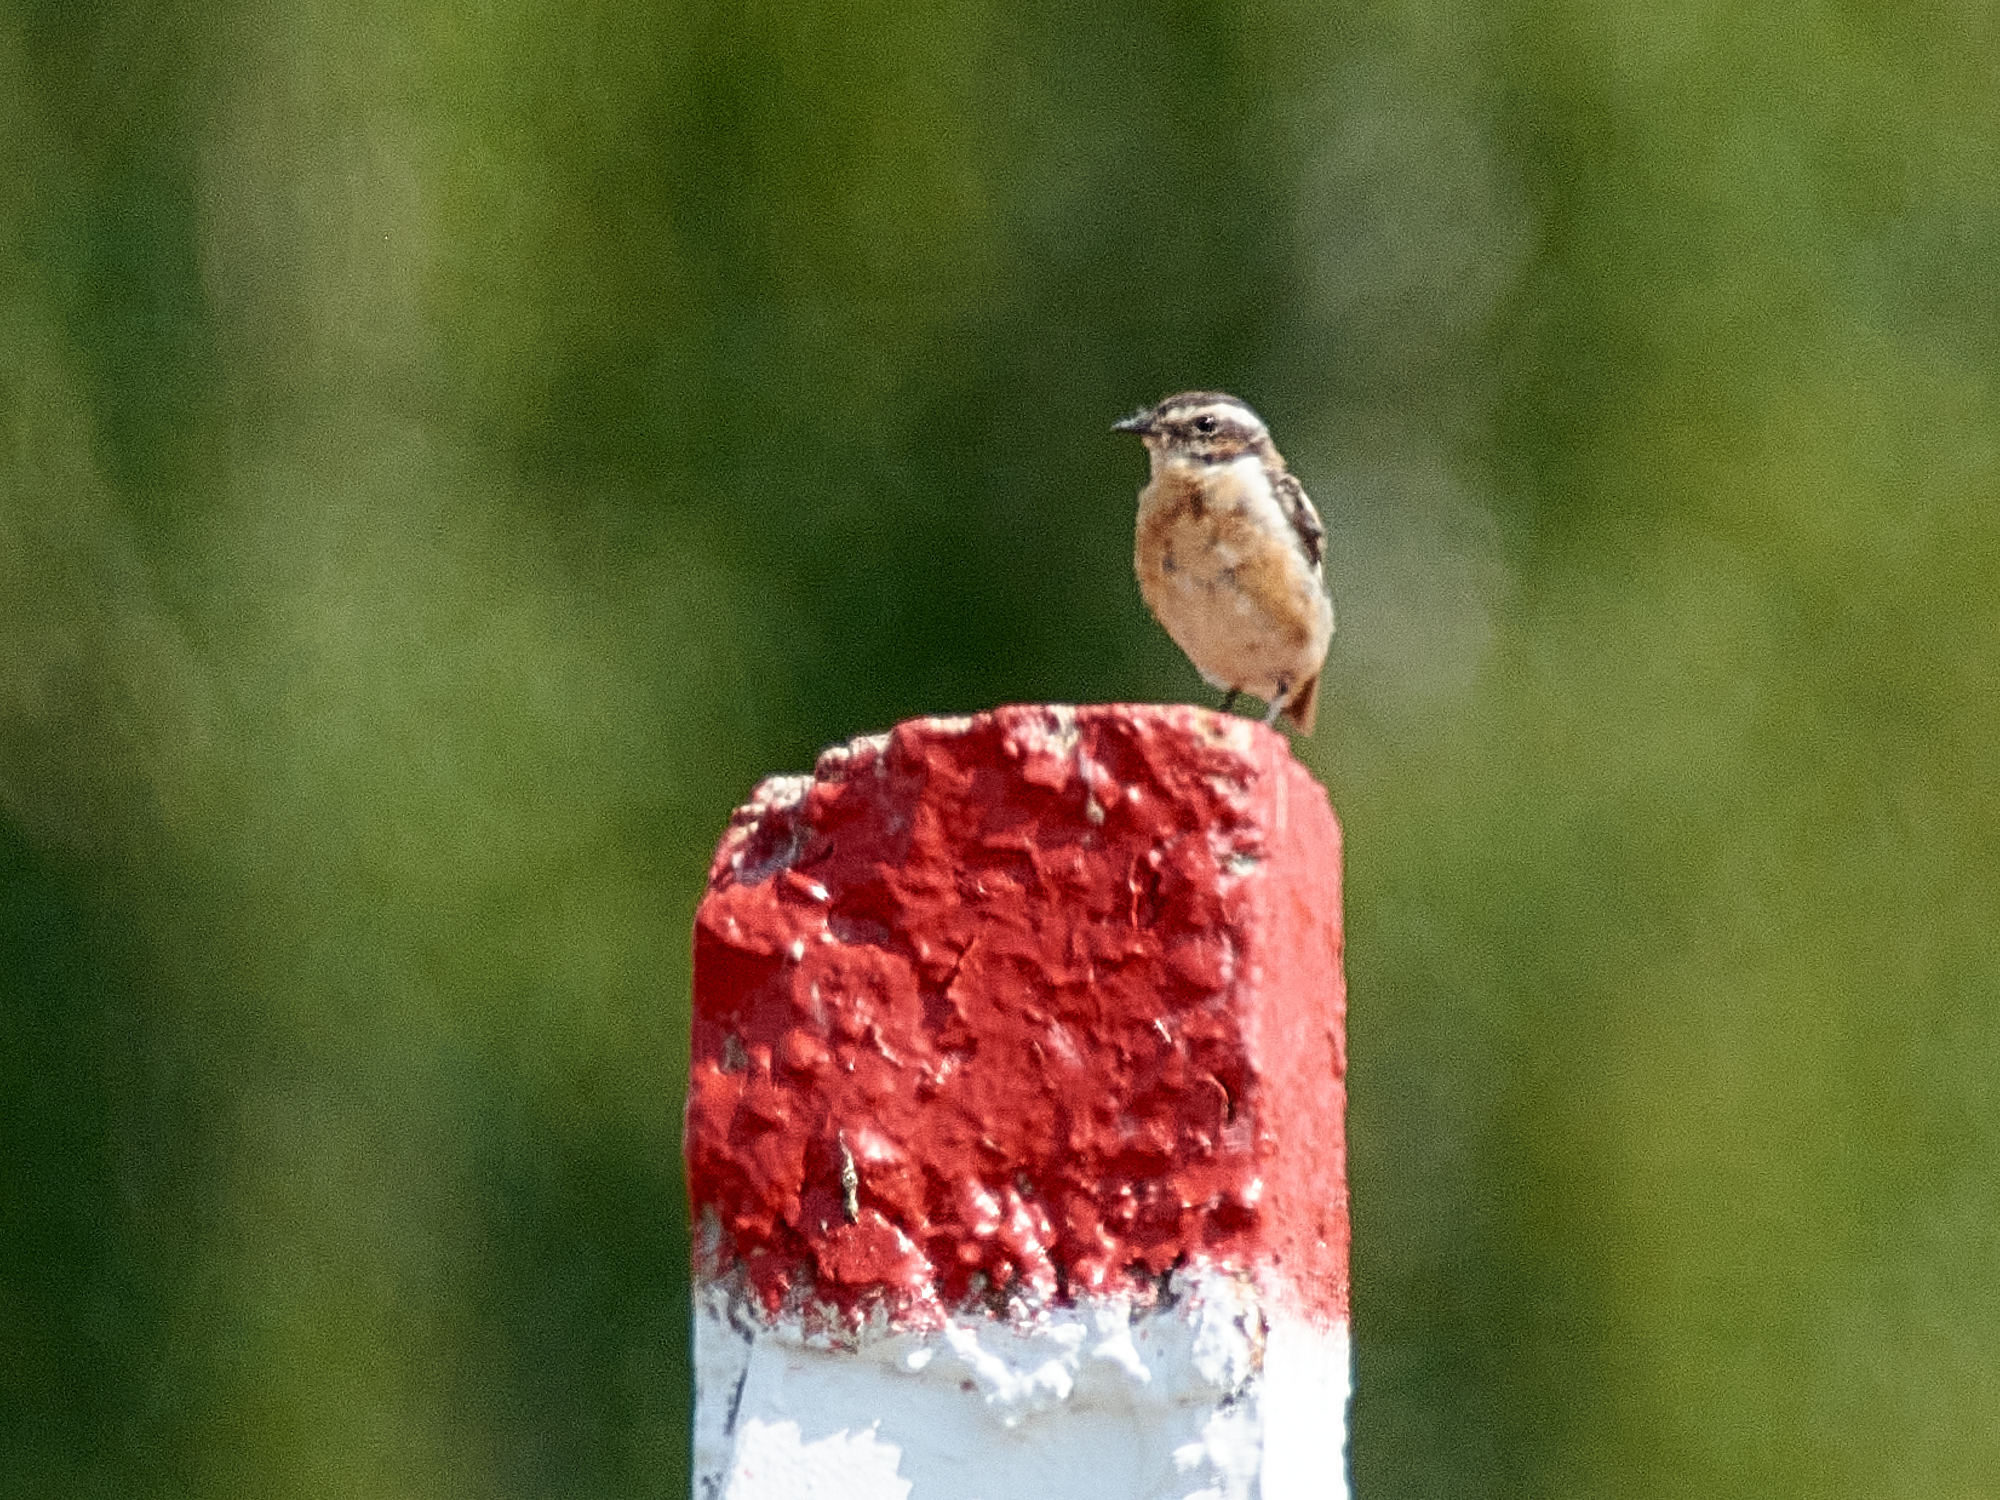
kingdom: Animalia
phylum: Chordata
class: Aves
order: Passeriformes
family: Muscicapidae
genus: Saxicola
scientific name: Saxicola rubetra
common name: Whinchat
